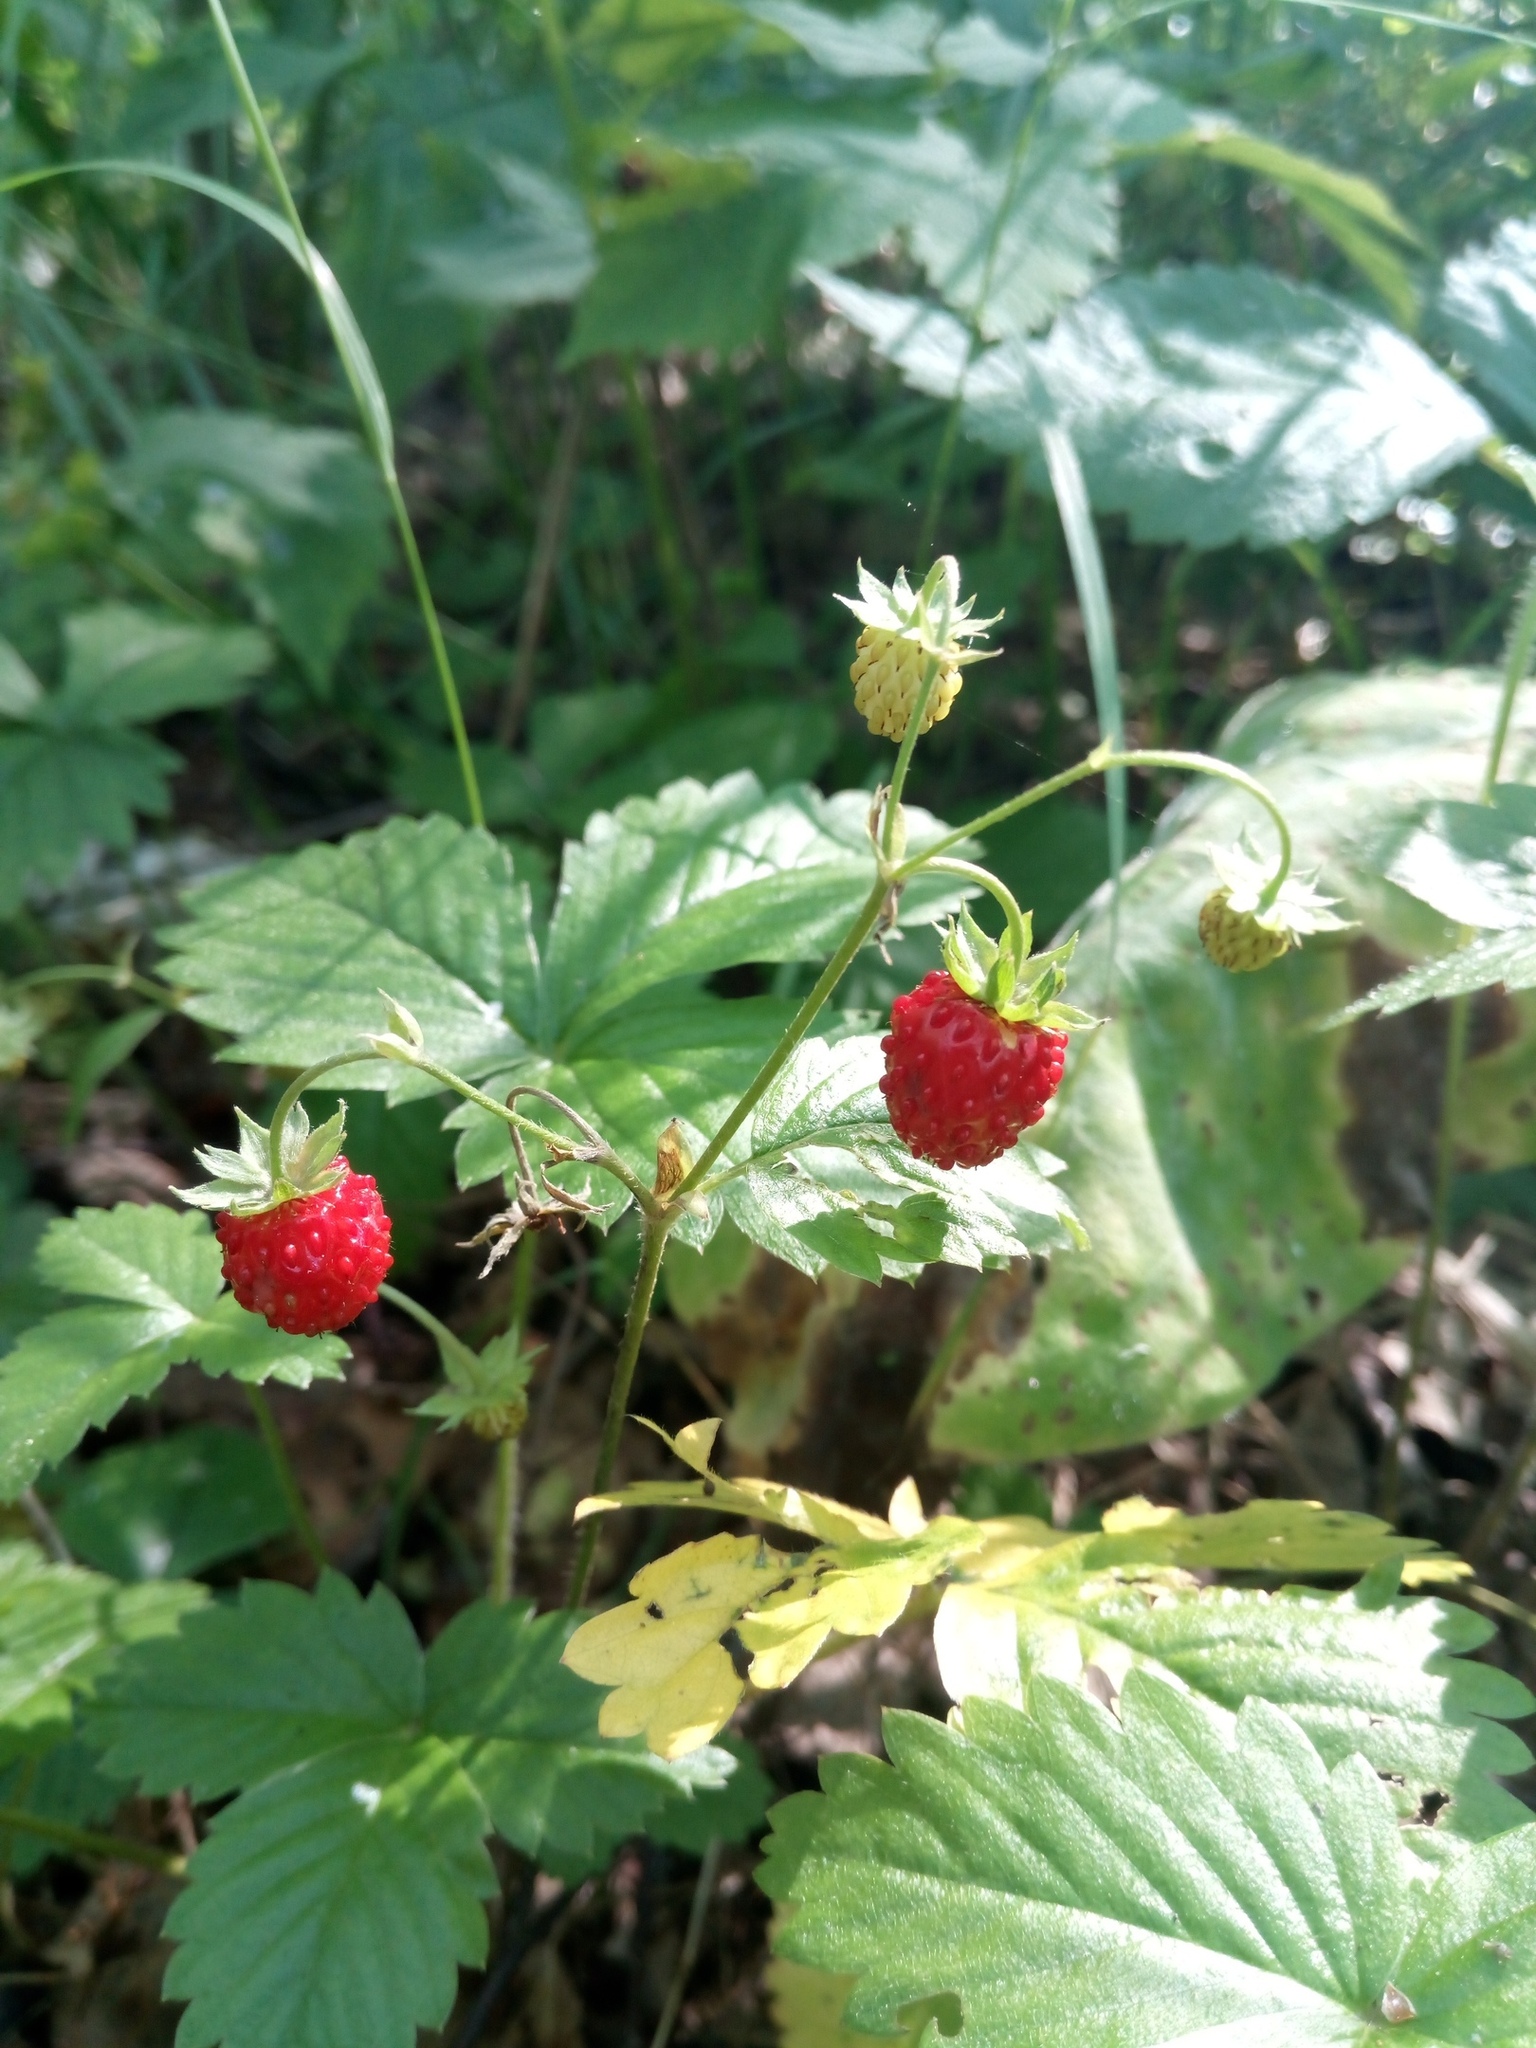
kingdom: Plantae
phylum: Tracheophyta
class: Magnoliopsida
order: Rosales
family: Rosaceae
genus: Fragaria
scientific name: Fragaria vesca
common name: Wild strawberry
